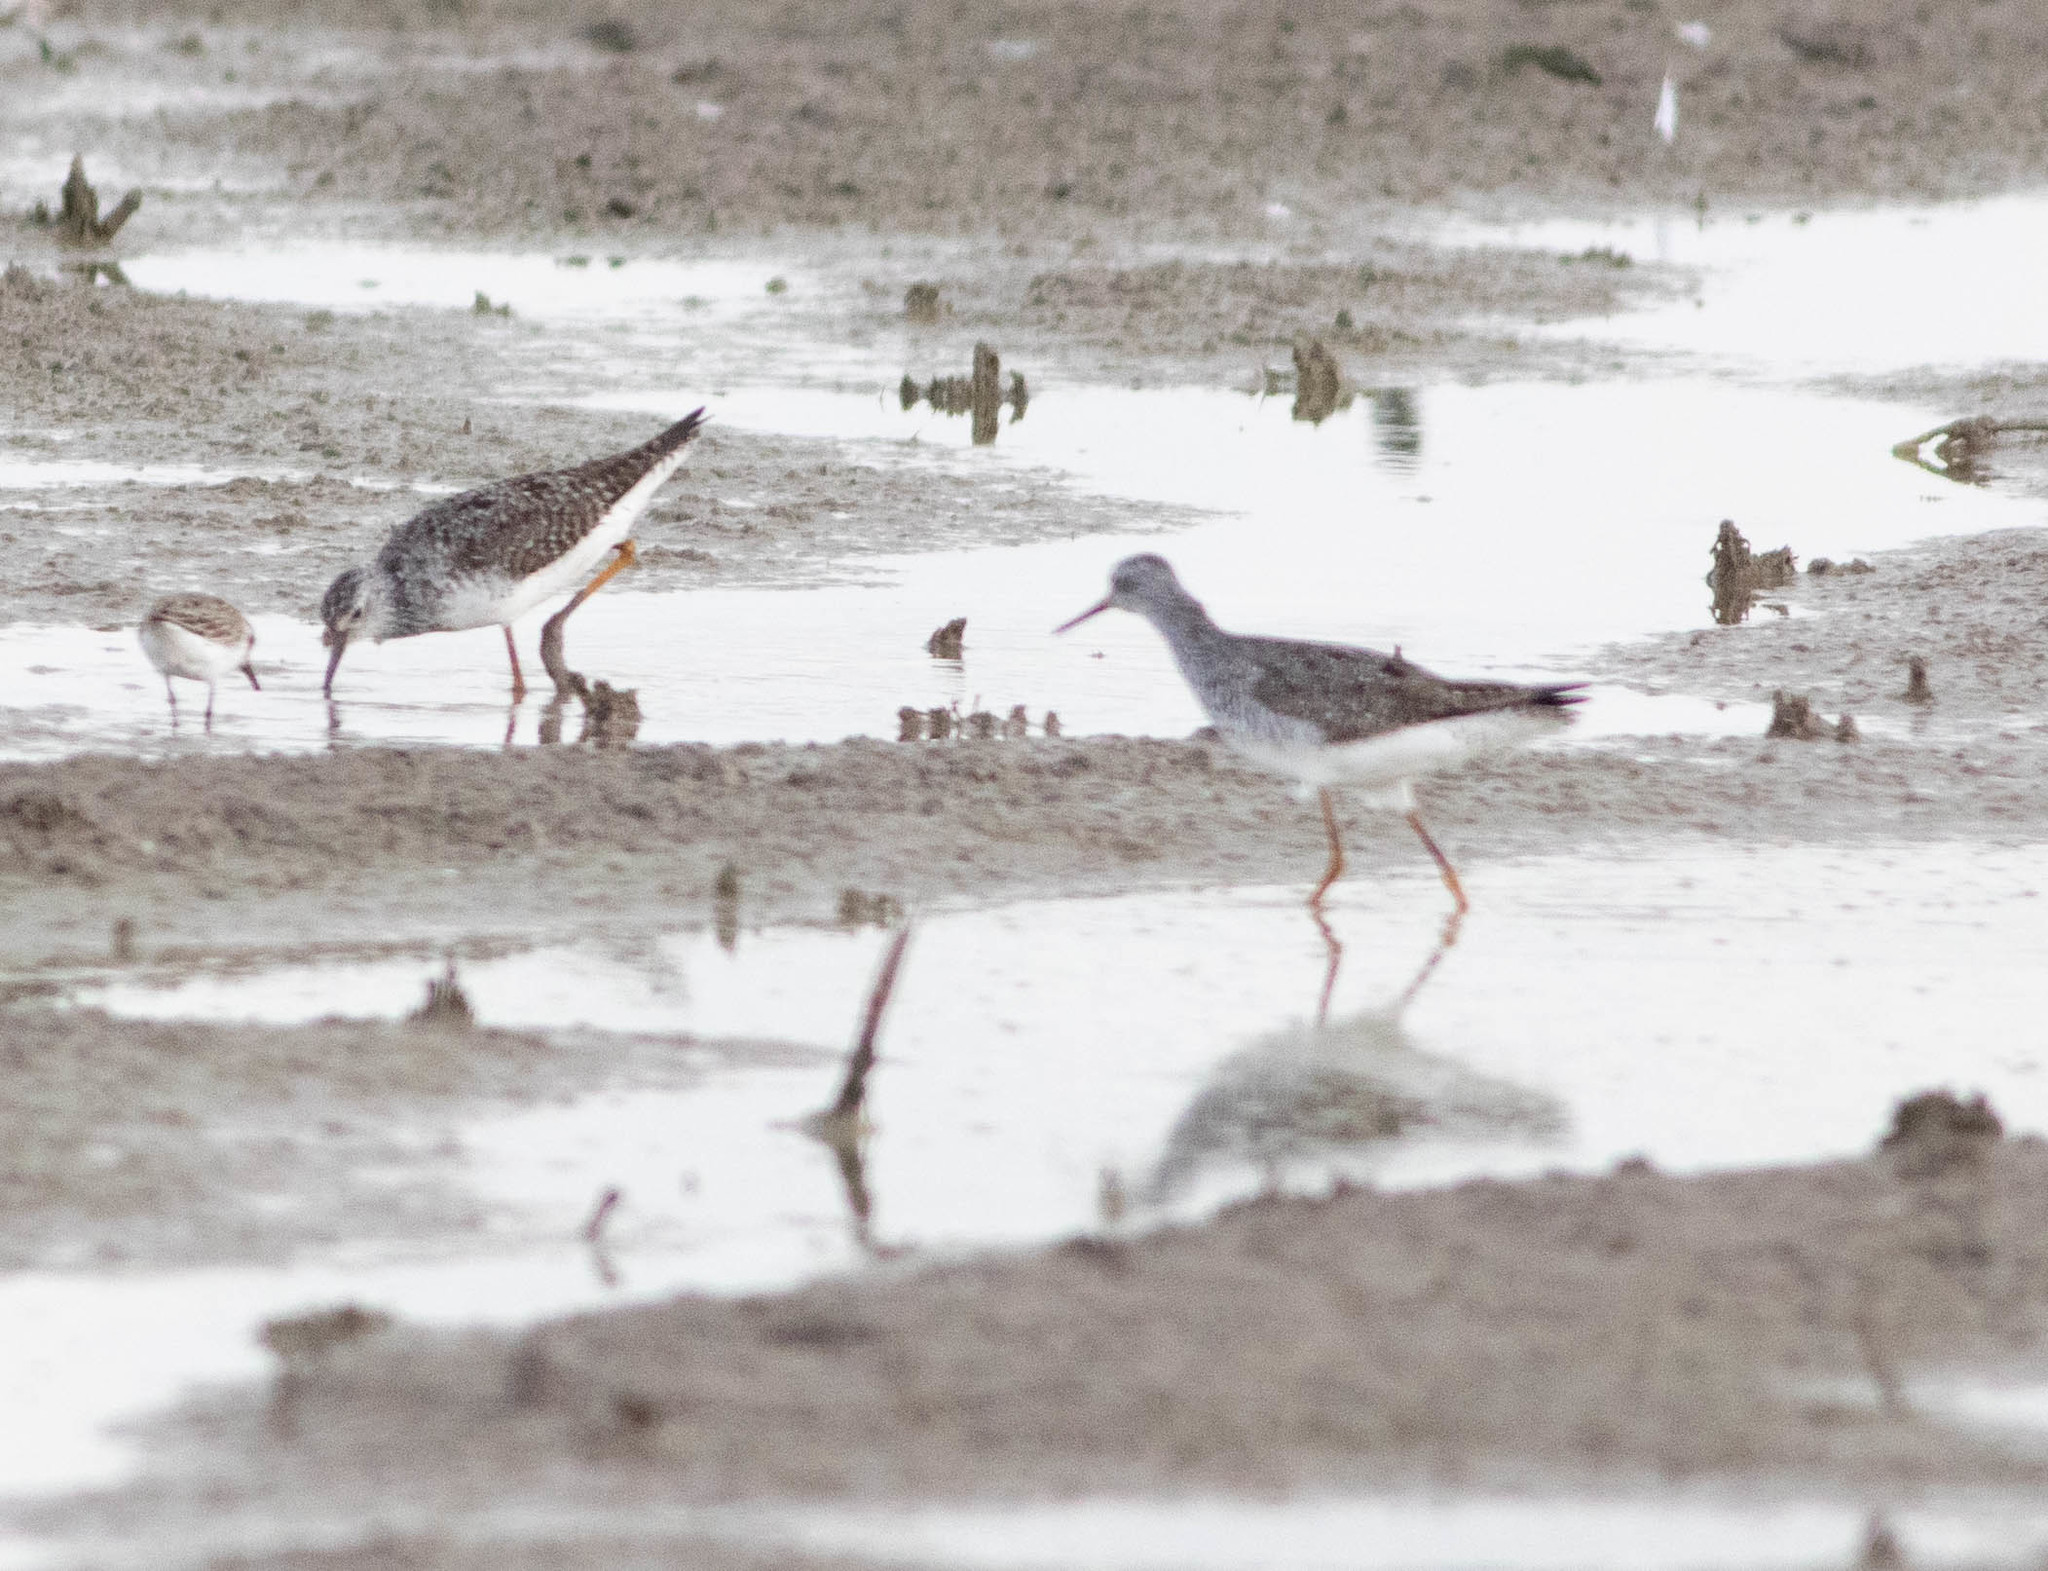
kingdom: Animalia
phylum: Chordata
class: Aves
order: Charadriiformes
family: Scolopacidae
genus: Tringa
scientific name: Tringa flavipes
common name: Lesser yellowlegs
